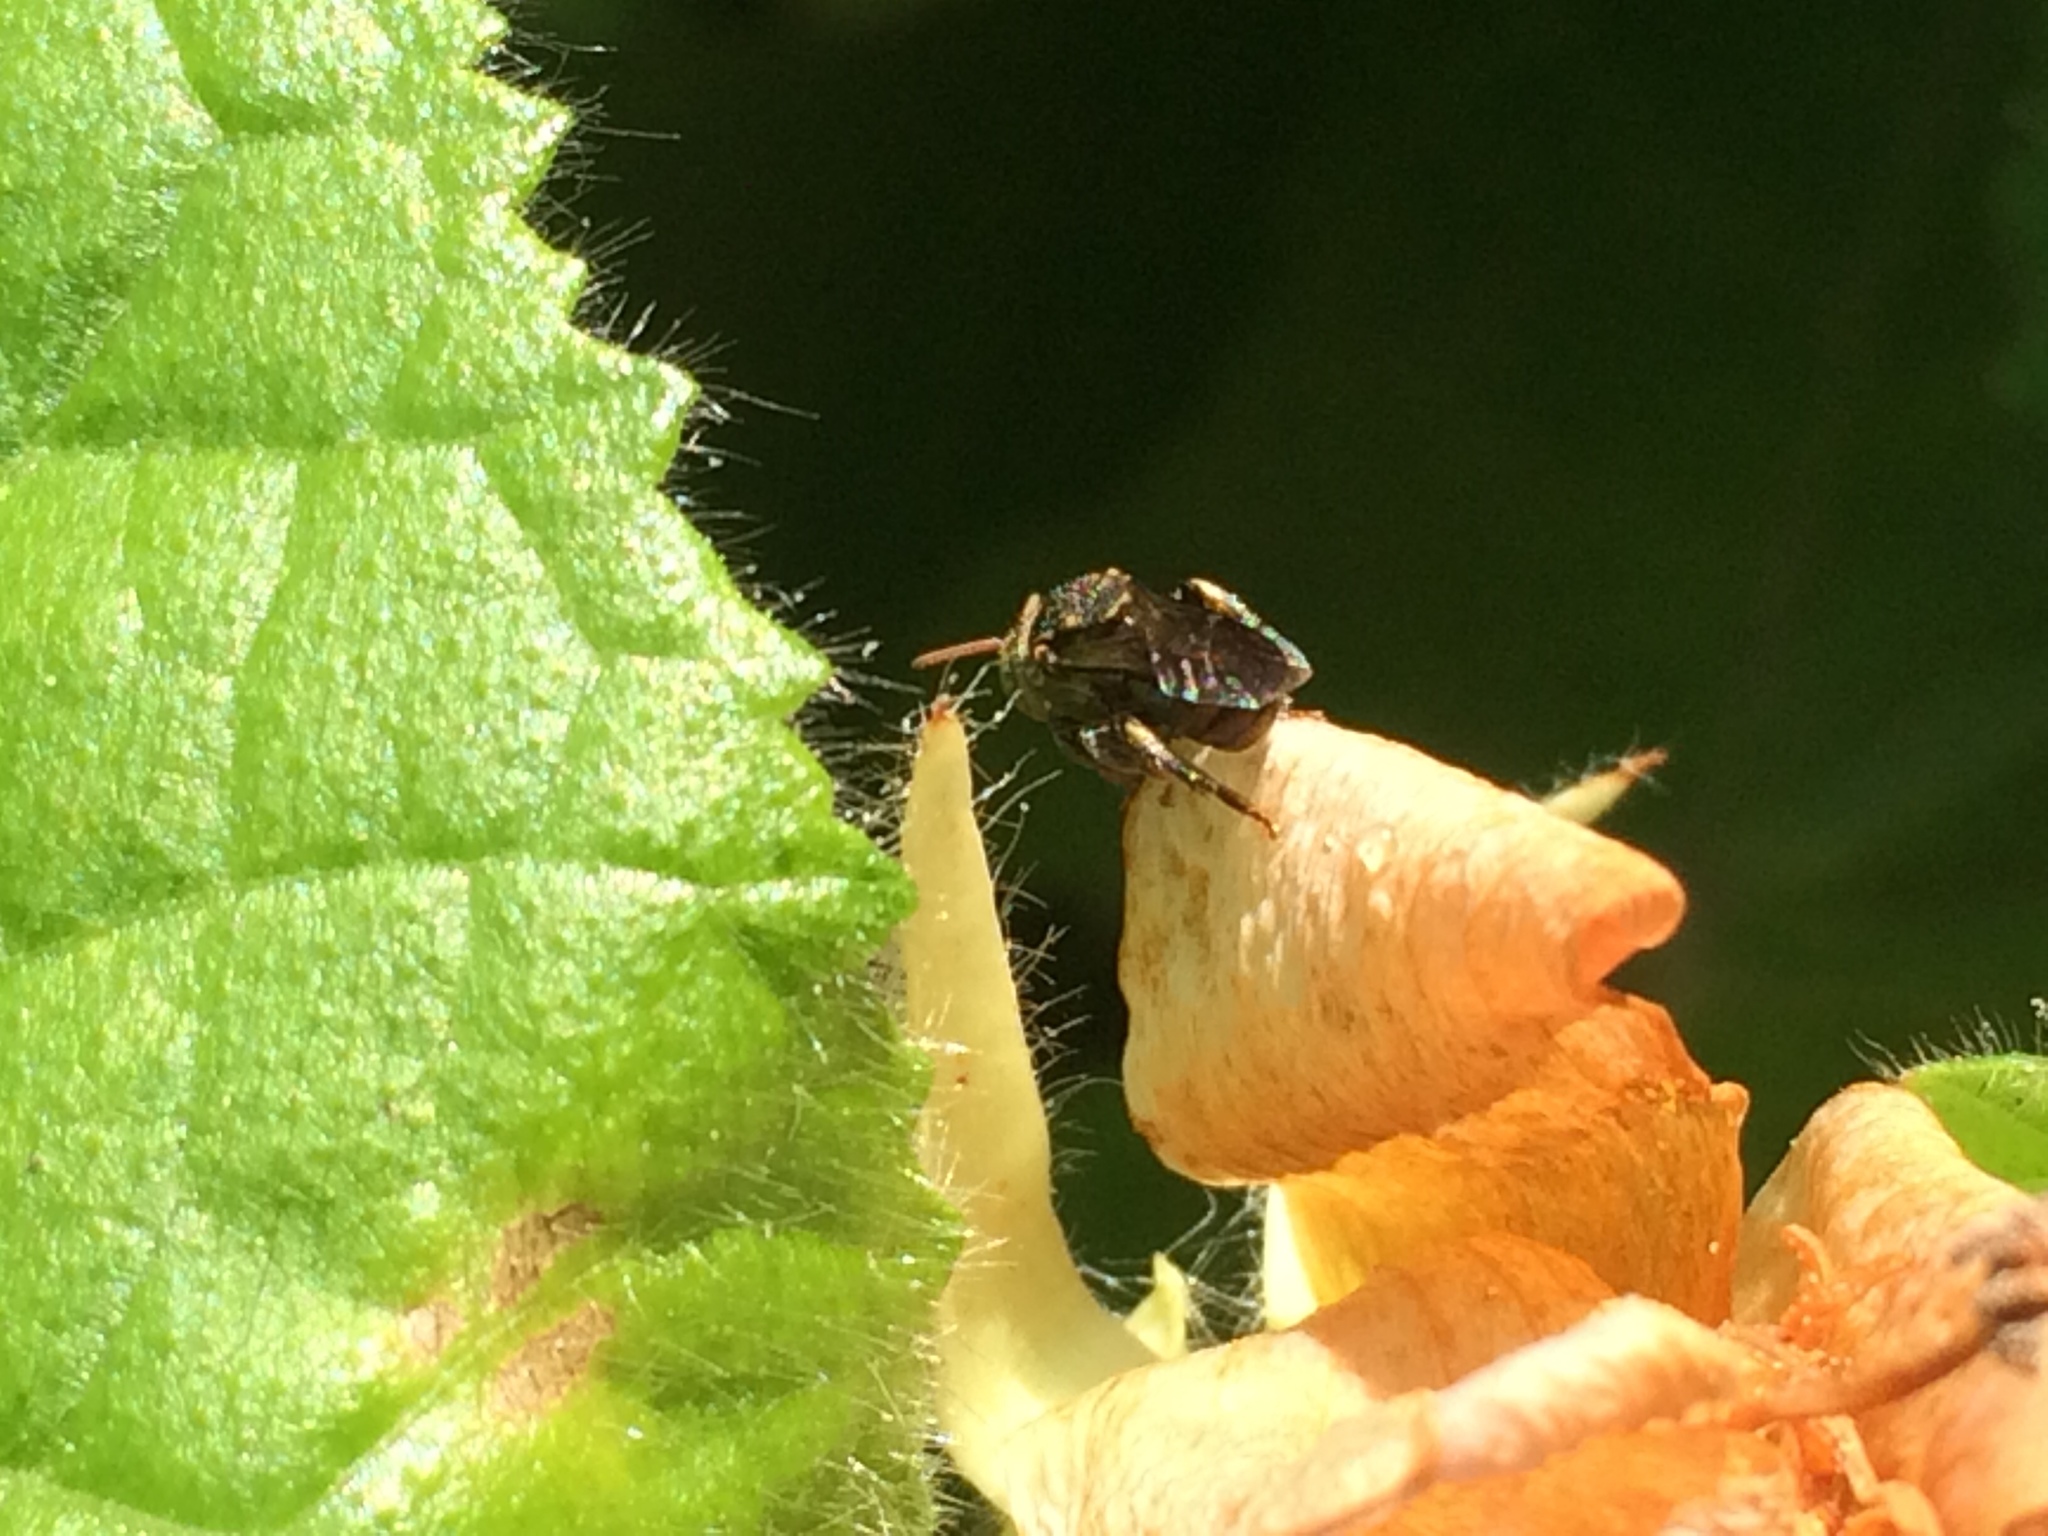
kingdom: Animalia
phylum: Arthropoda
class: Insecta
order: Hymenoptera
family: Apidae
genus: Nannotrigona
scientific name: Nannotrigona perilampoides
